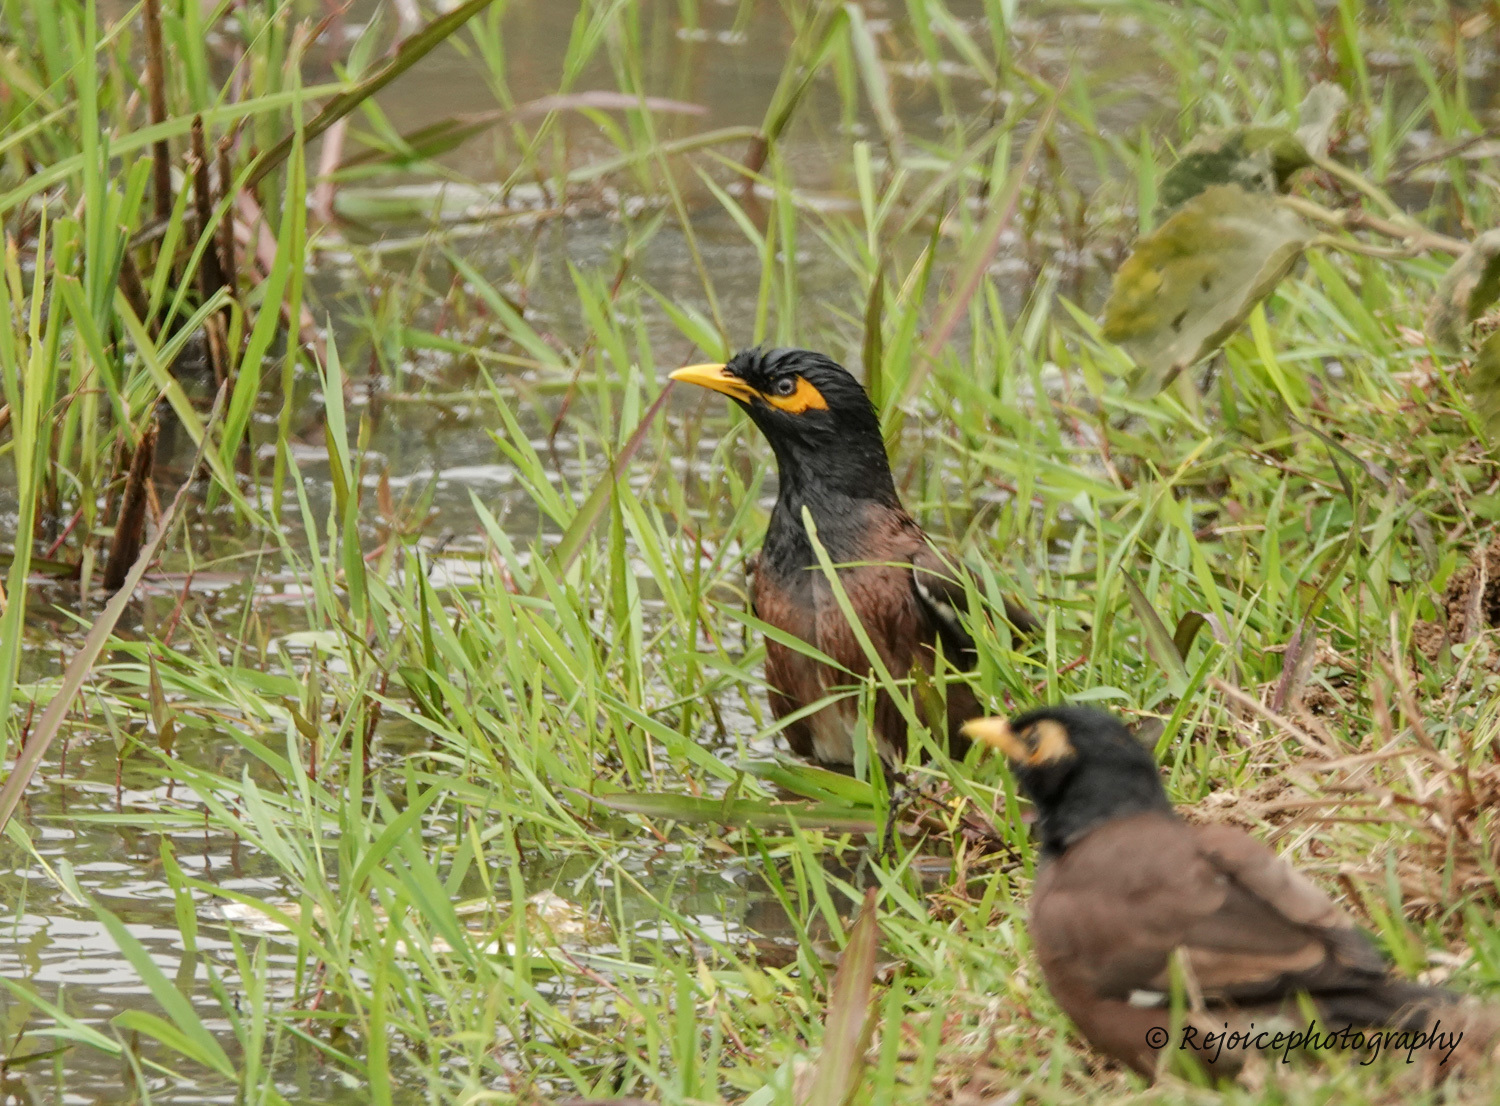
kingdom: Animalia
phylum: Chordata
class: Aves
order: Passeriformes
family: Sturnidae
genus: Acridotheres
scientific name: Acridotheres tristis
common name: Common myna
